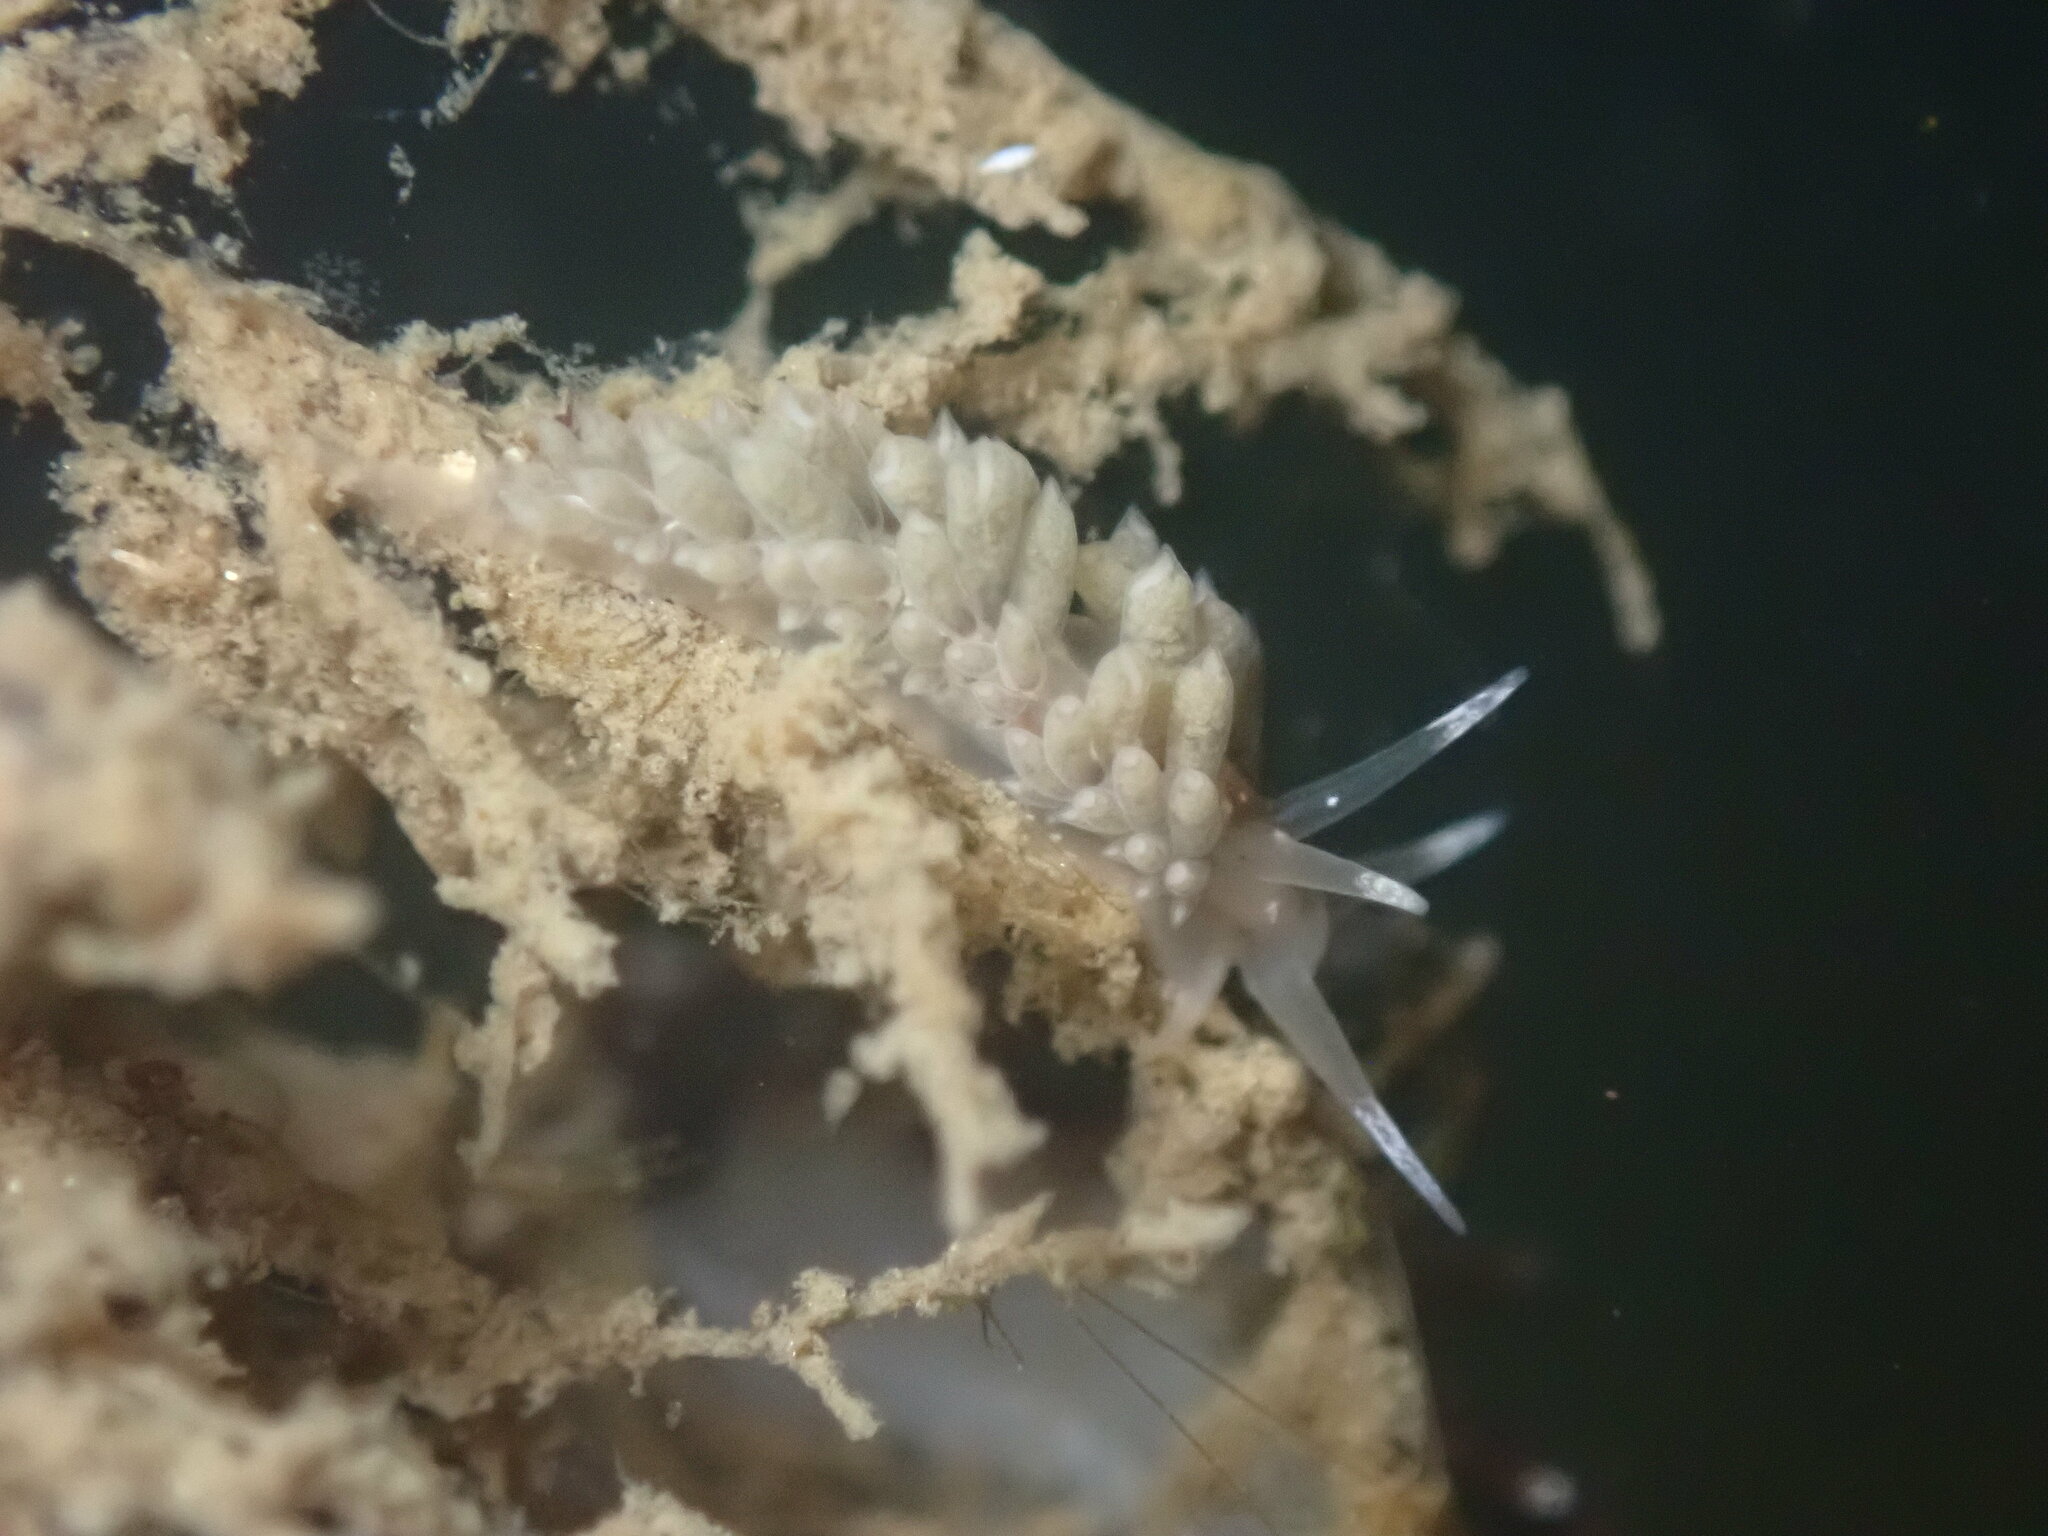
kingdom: Animalia
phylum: Mollusca
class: Gastropoda
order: Nudibranchia
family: Facelinidae
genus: Emarcusia
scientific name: Emarcusia morroensis
